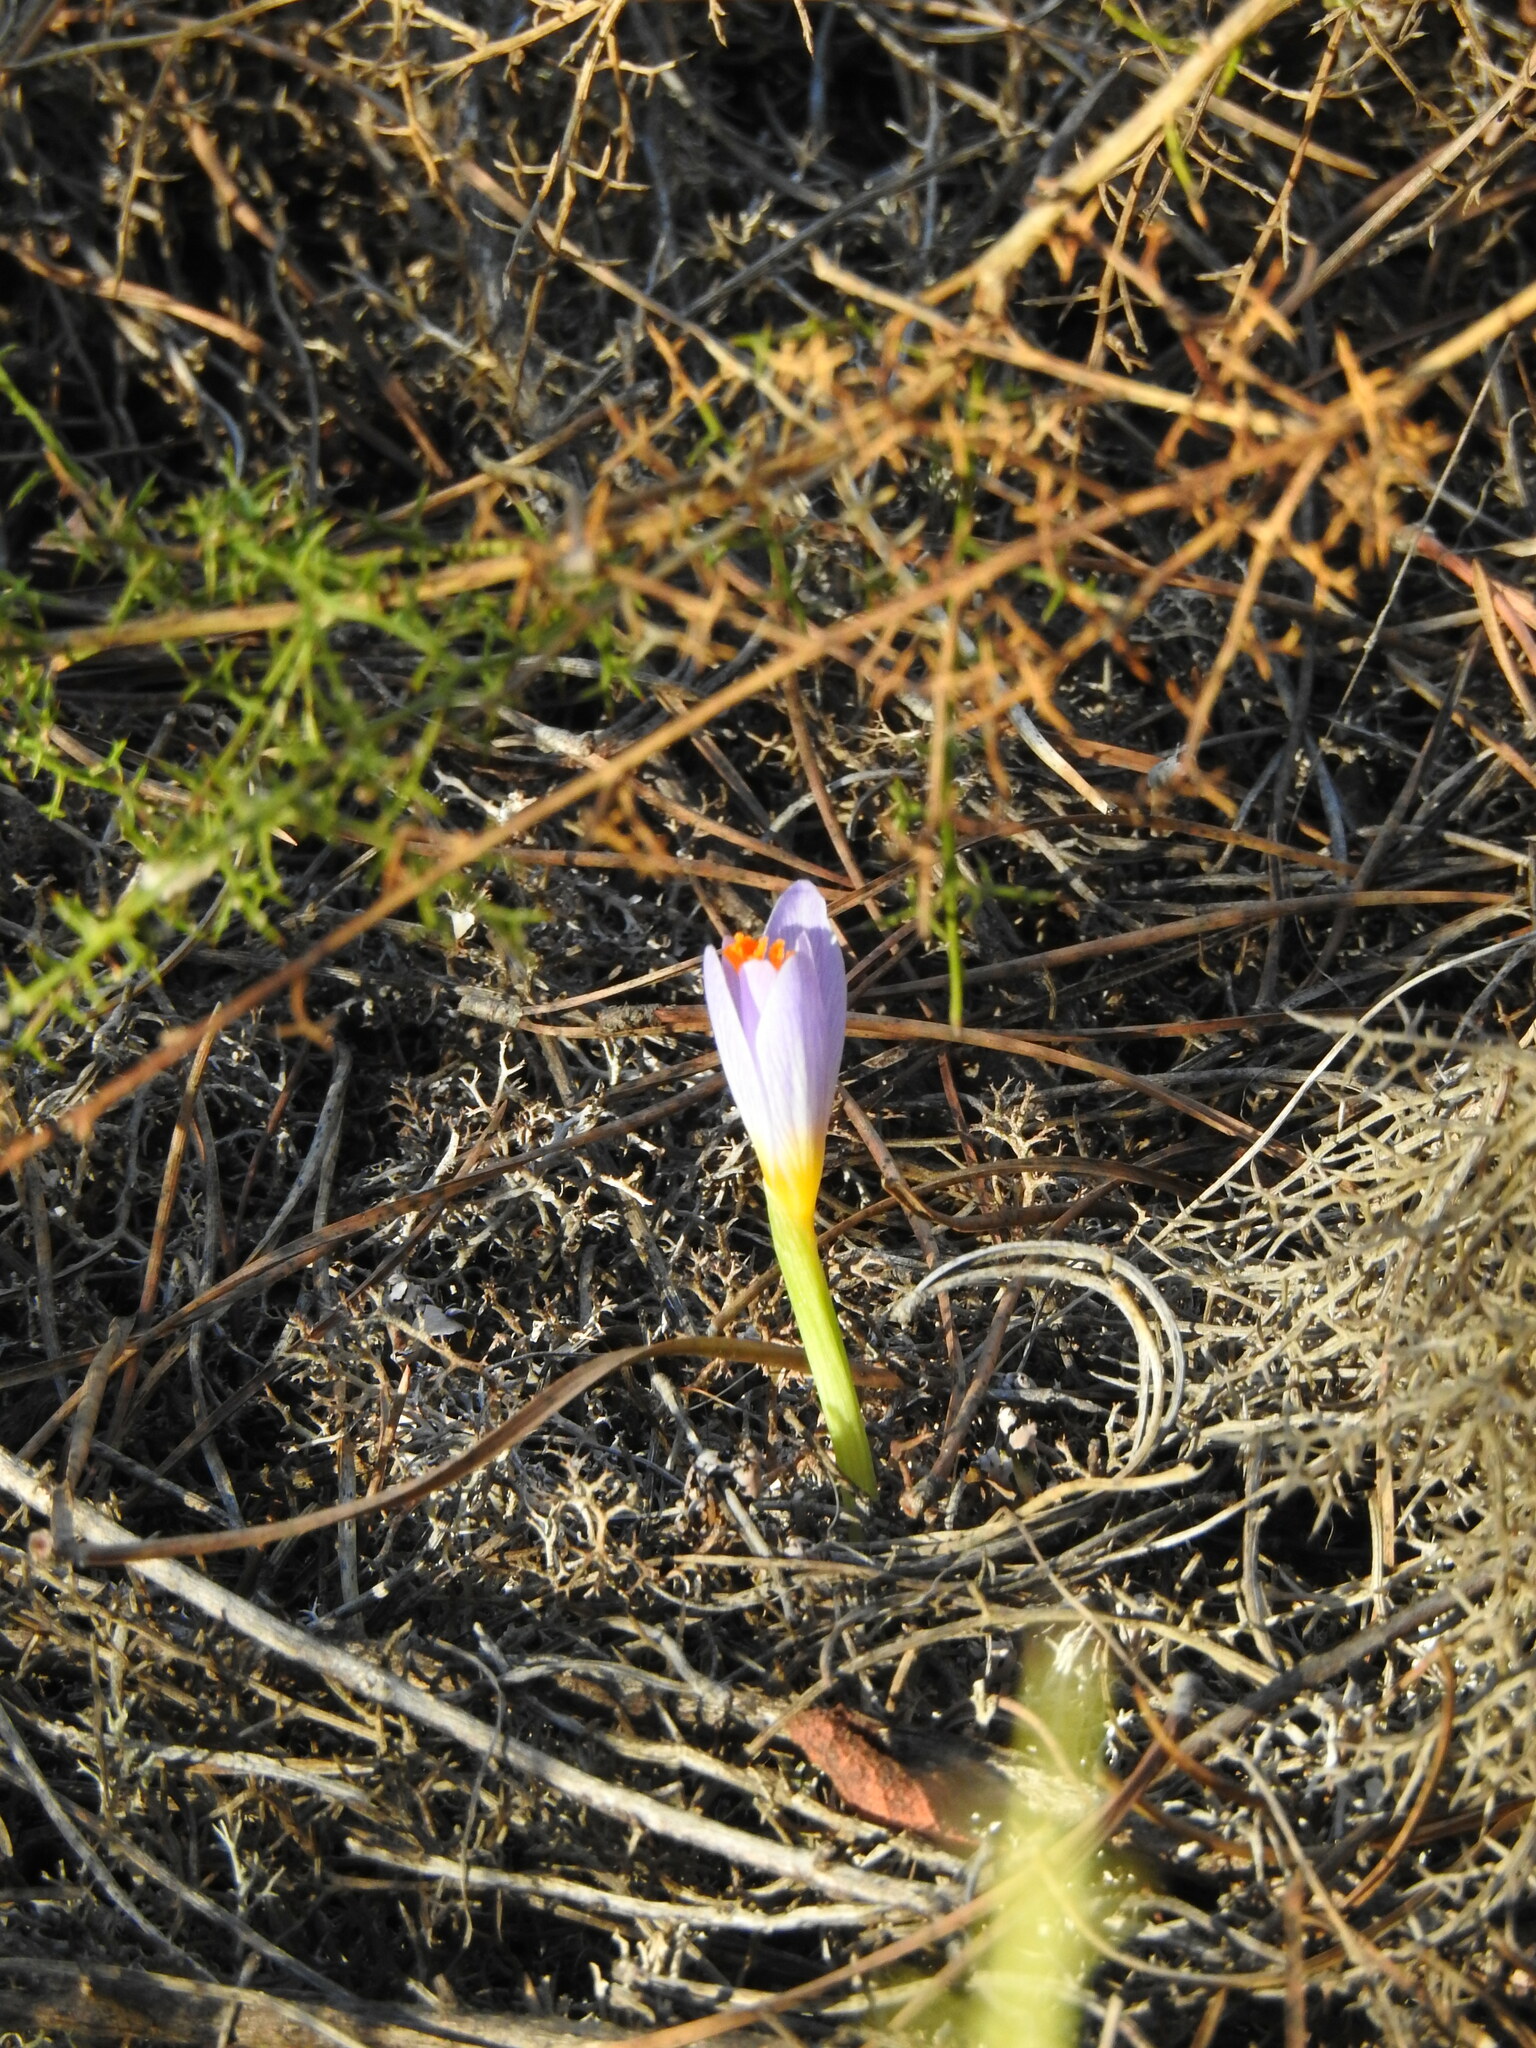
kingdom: Plantae
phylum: Tracheophyta
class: Liliopsida
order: Asparagales
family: Iridaceae
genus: Crocus
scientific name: Crocus serotinus
